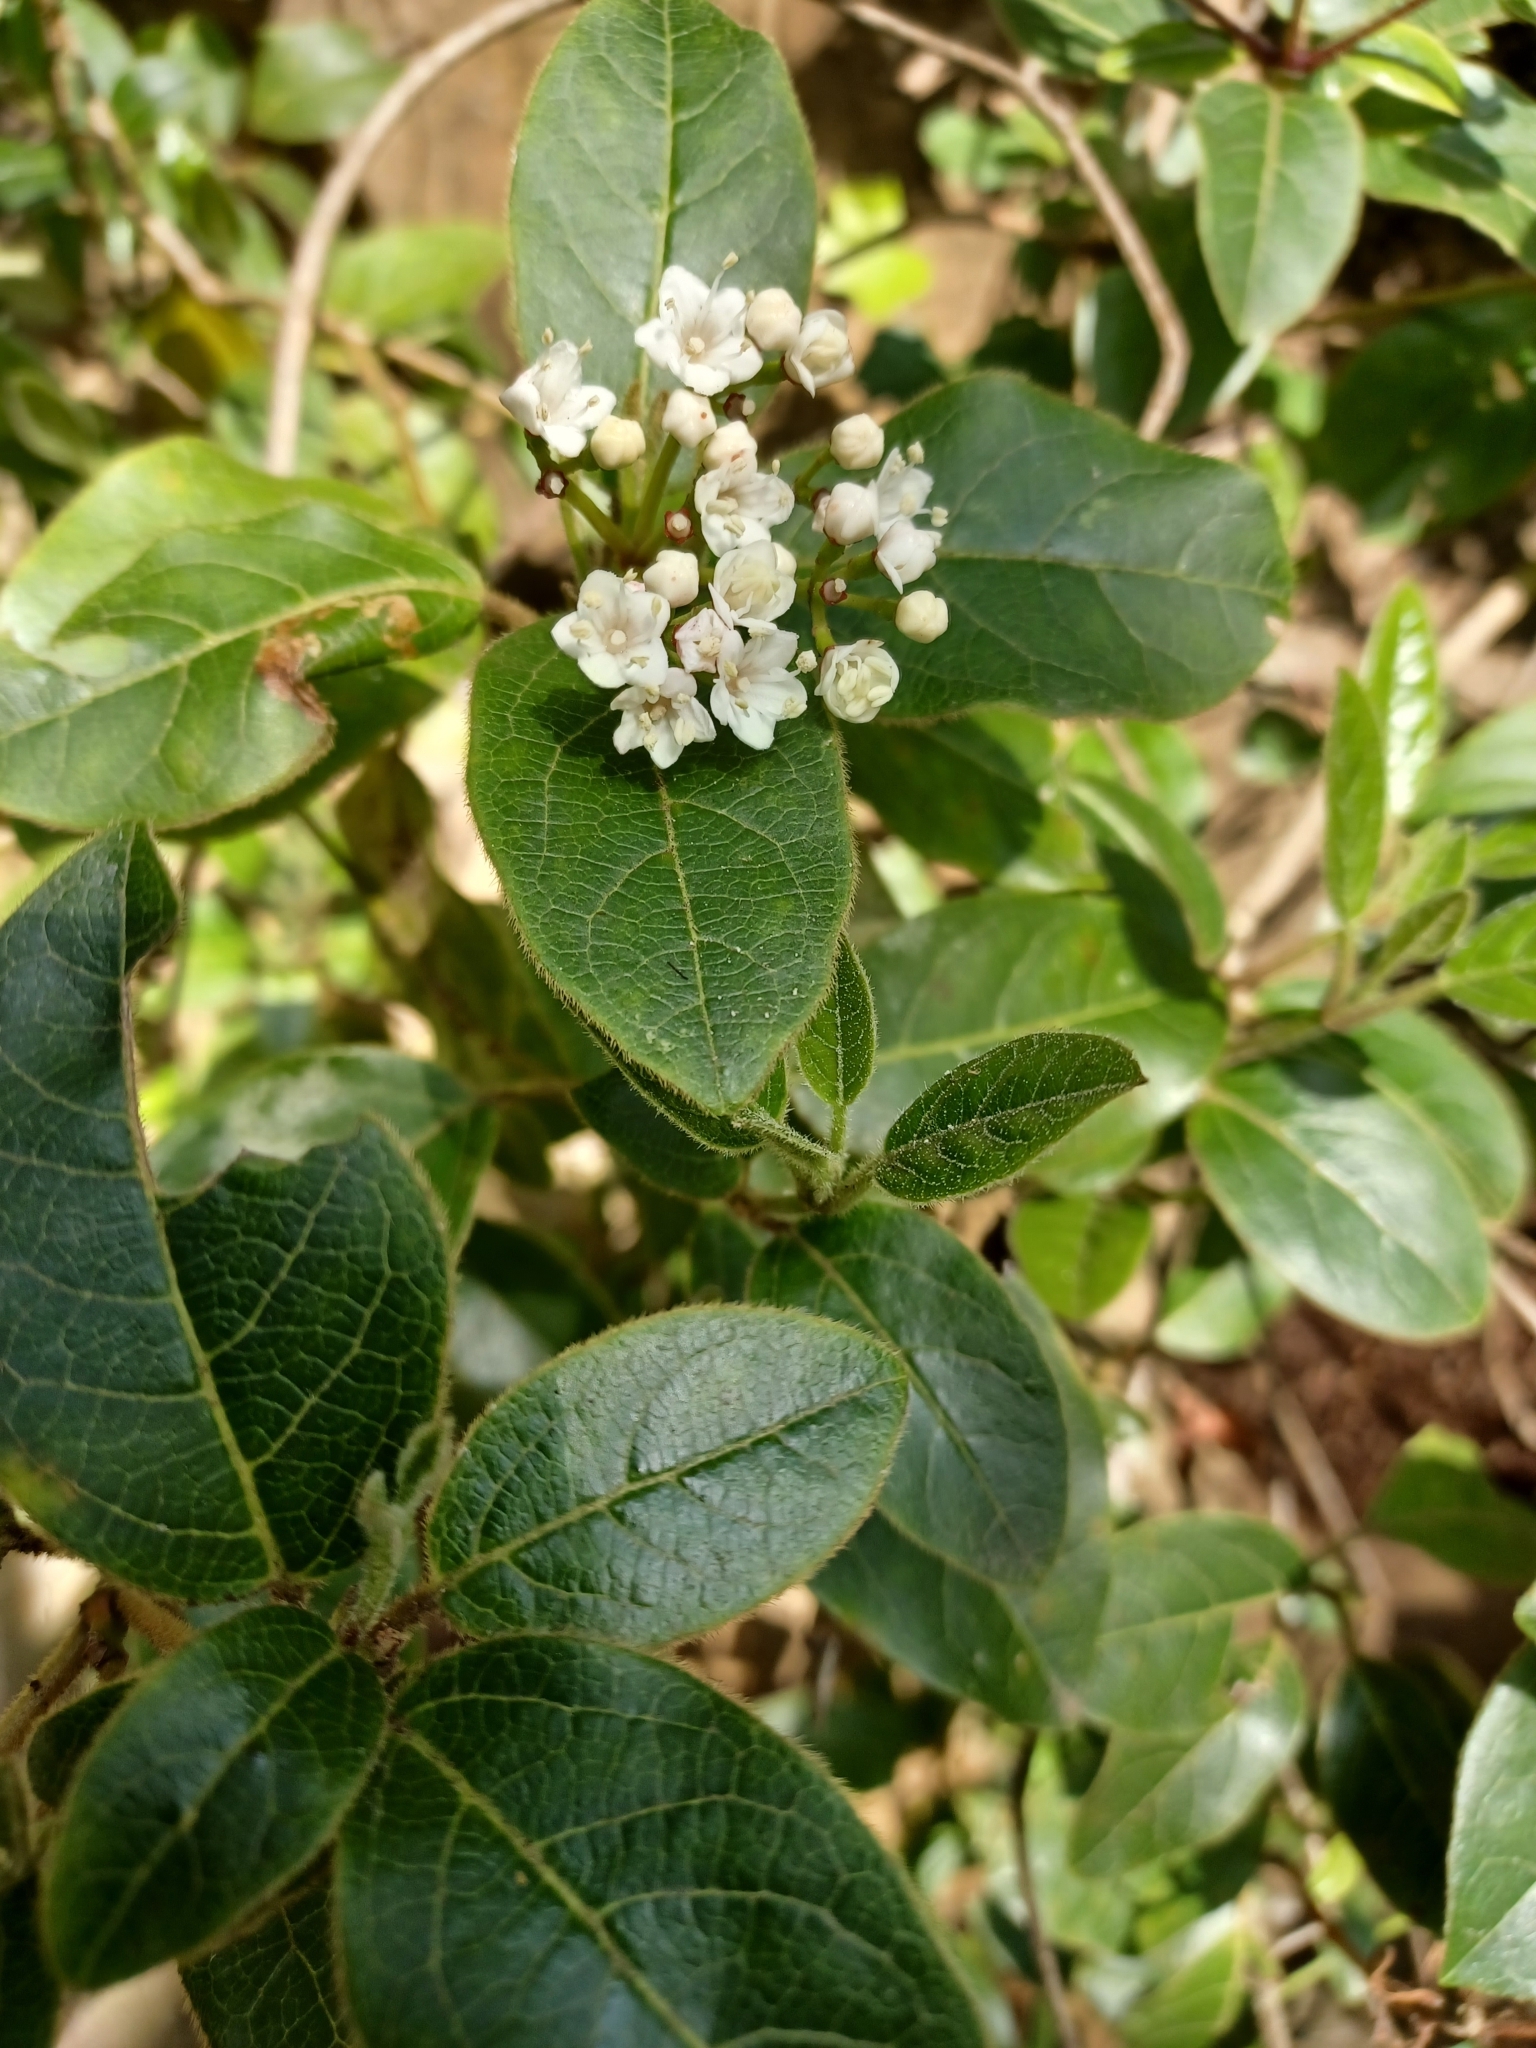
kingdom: Plantae
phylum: Tracheophyta
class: Magnoliopsida
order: Dipsacales
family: Viburnaceae
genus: Viburnum
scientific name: Viburnum tinus
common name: Laurustinus
